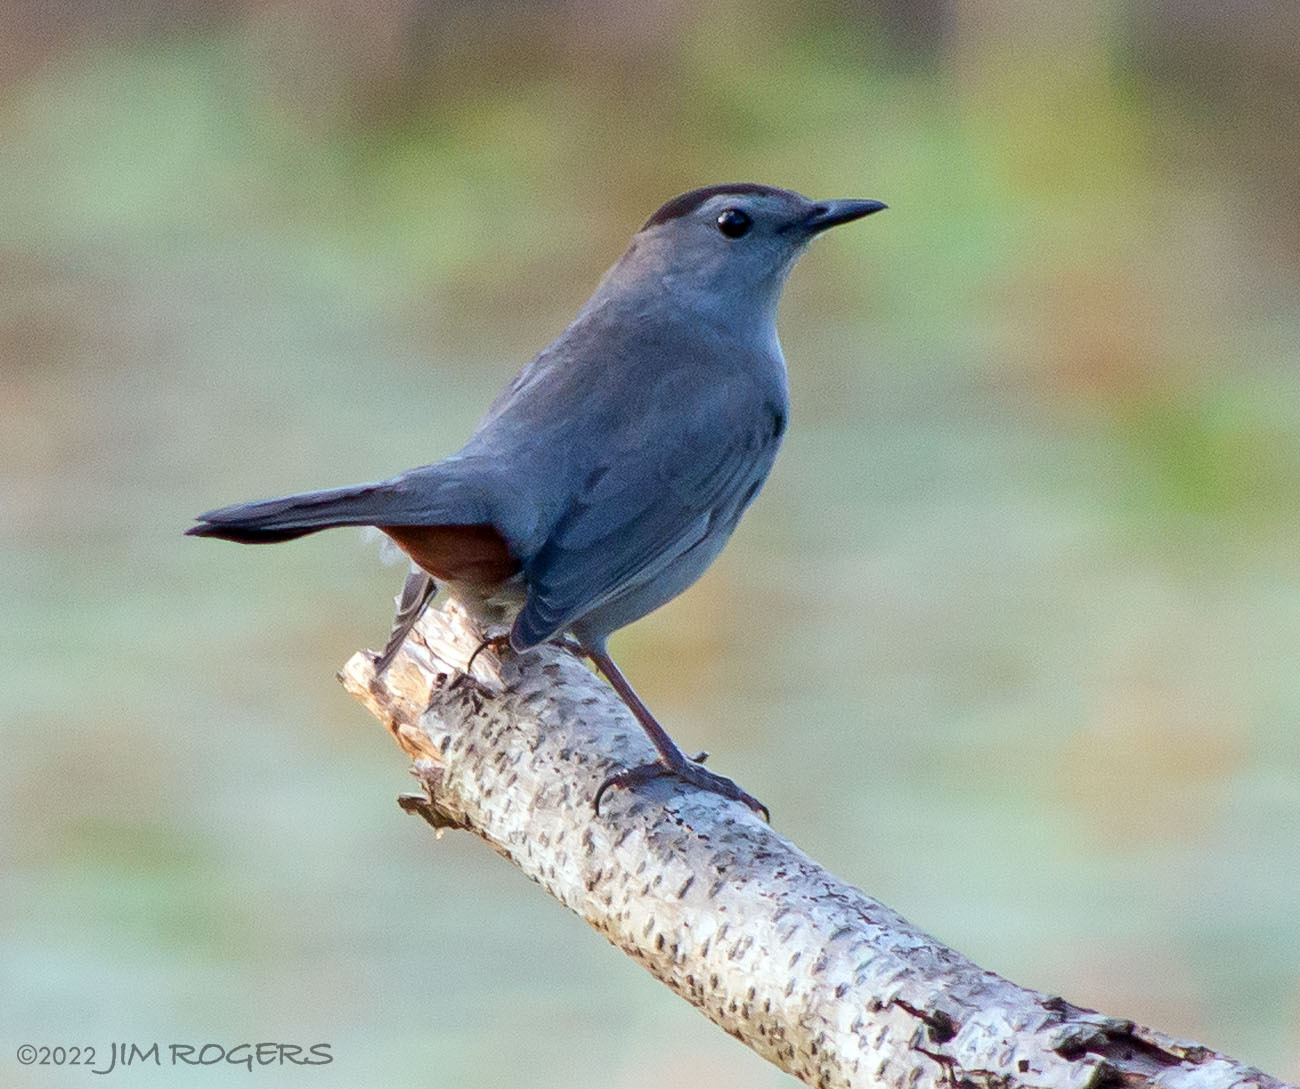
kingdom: Animalia
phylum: Chordata
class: Aves
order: Passeriformes
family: Mimidae
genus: Dumetella
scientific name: Dumetella carolinensis
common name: Gray catbird
